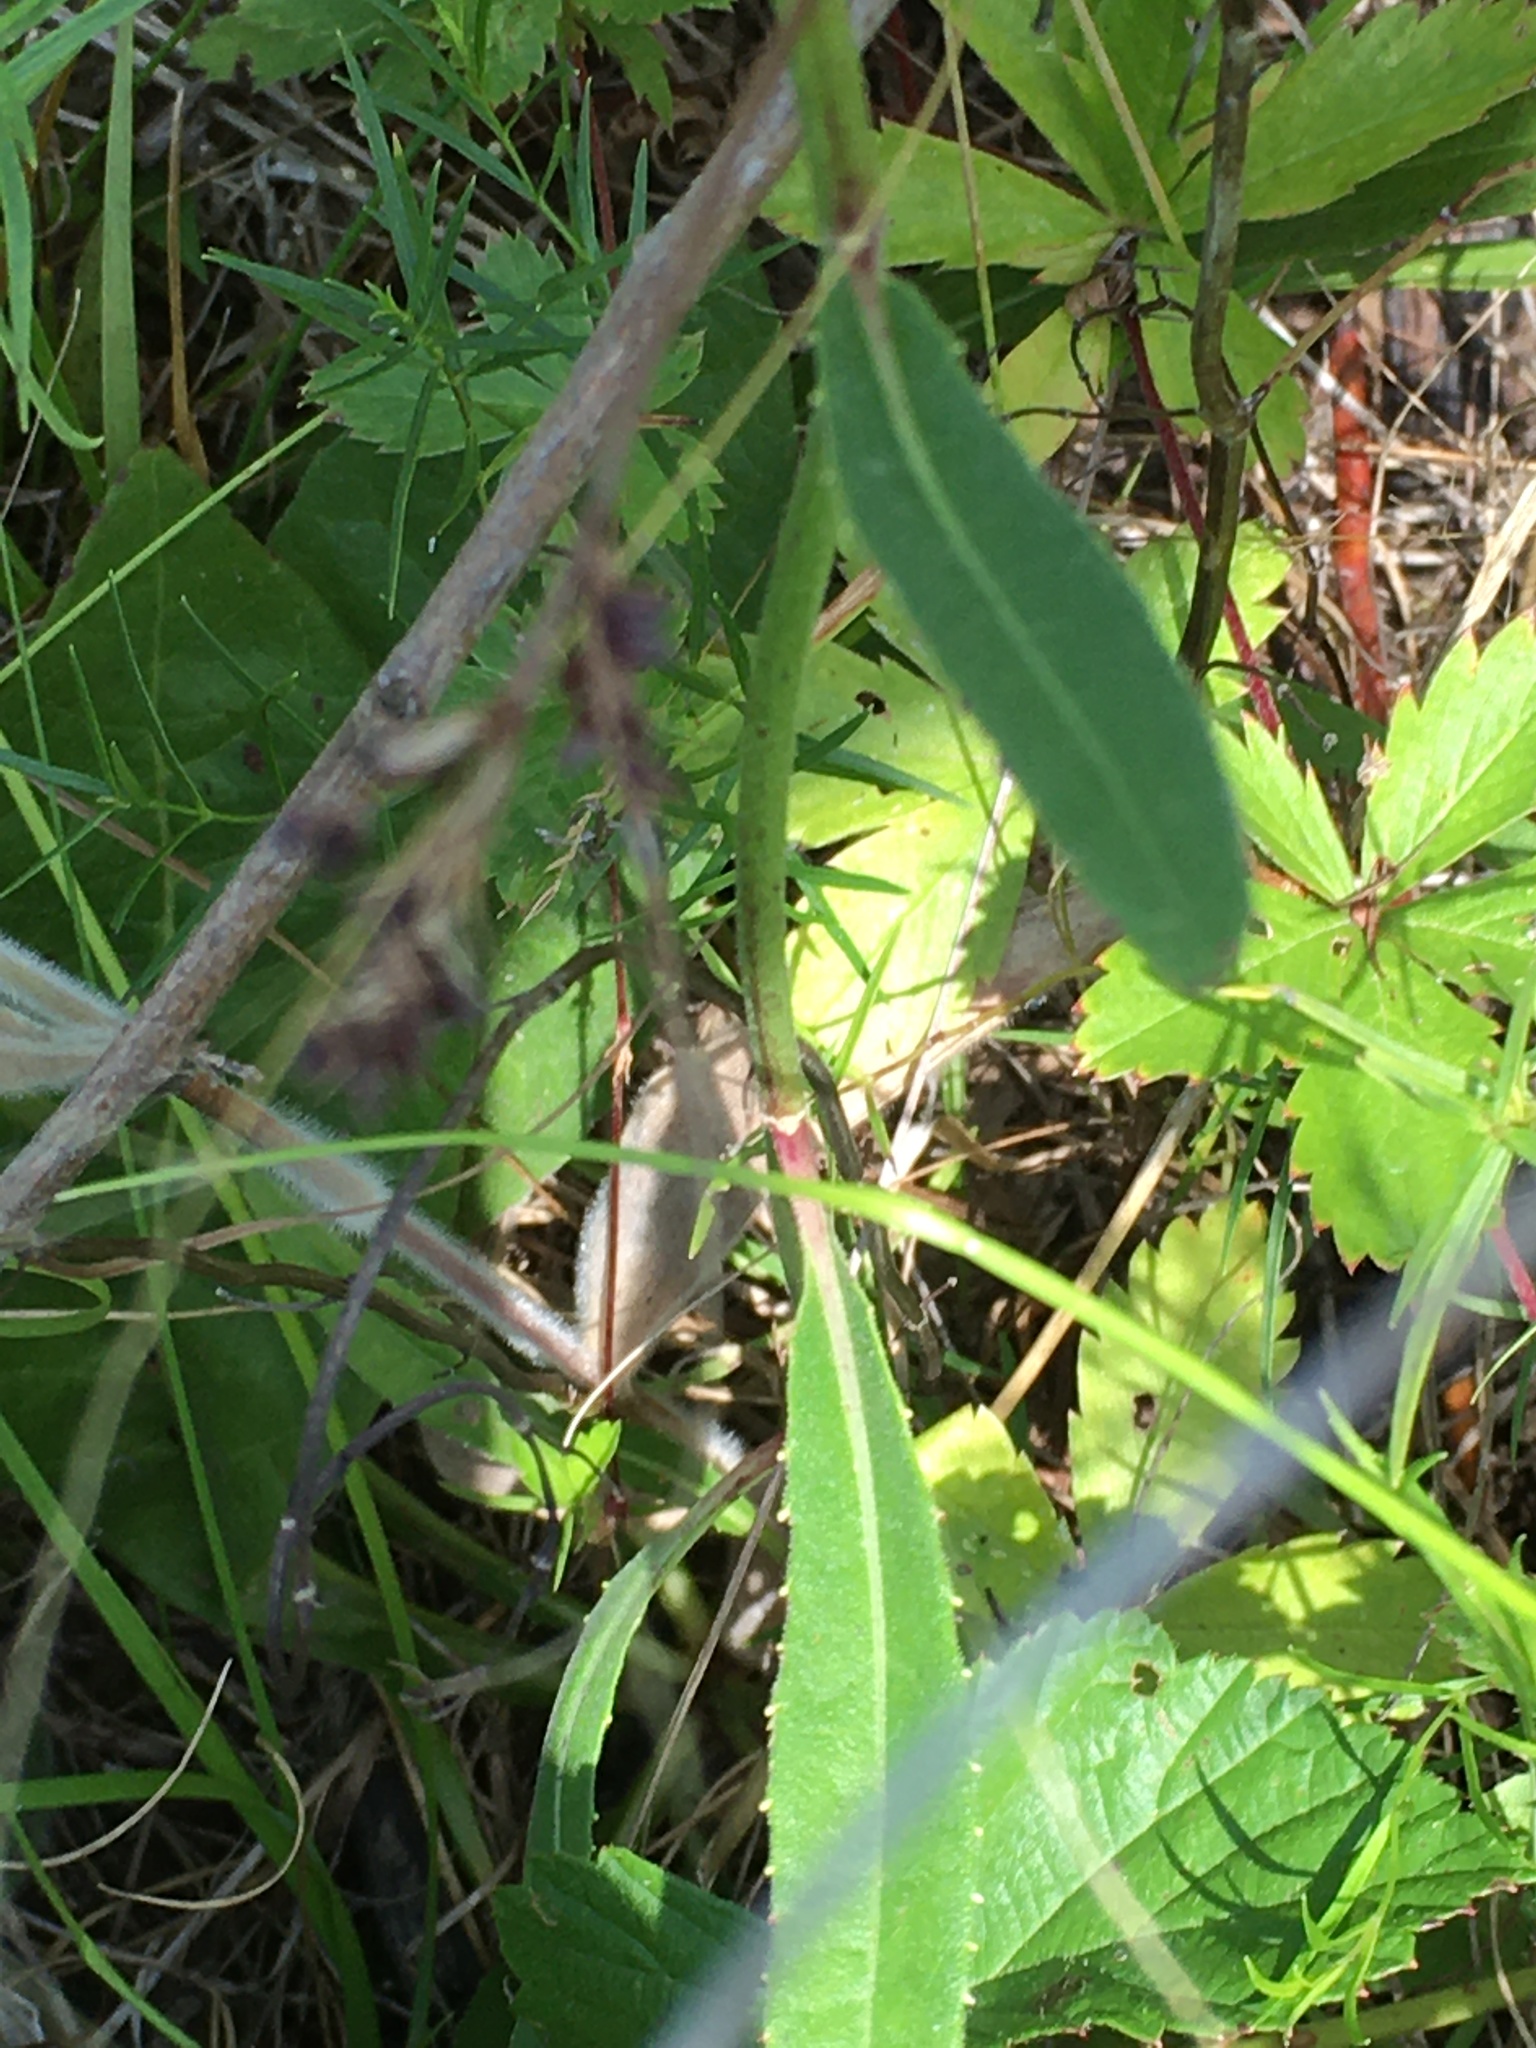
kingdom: Plantae
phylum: Tracheophyta
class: Magnoliopsida
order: Asterales
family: Asteraceae
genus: Vernonia
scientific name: Vernonia acaulis
